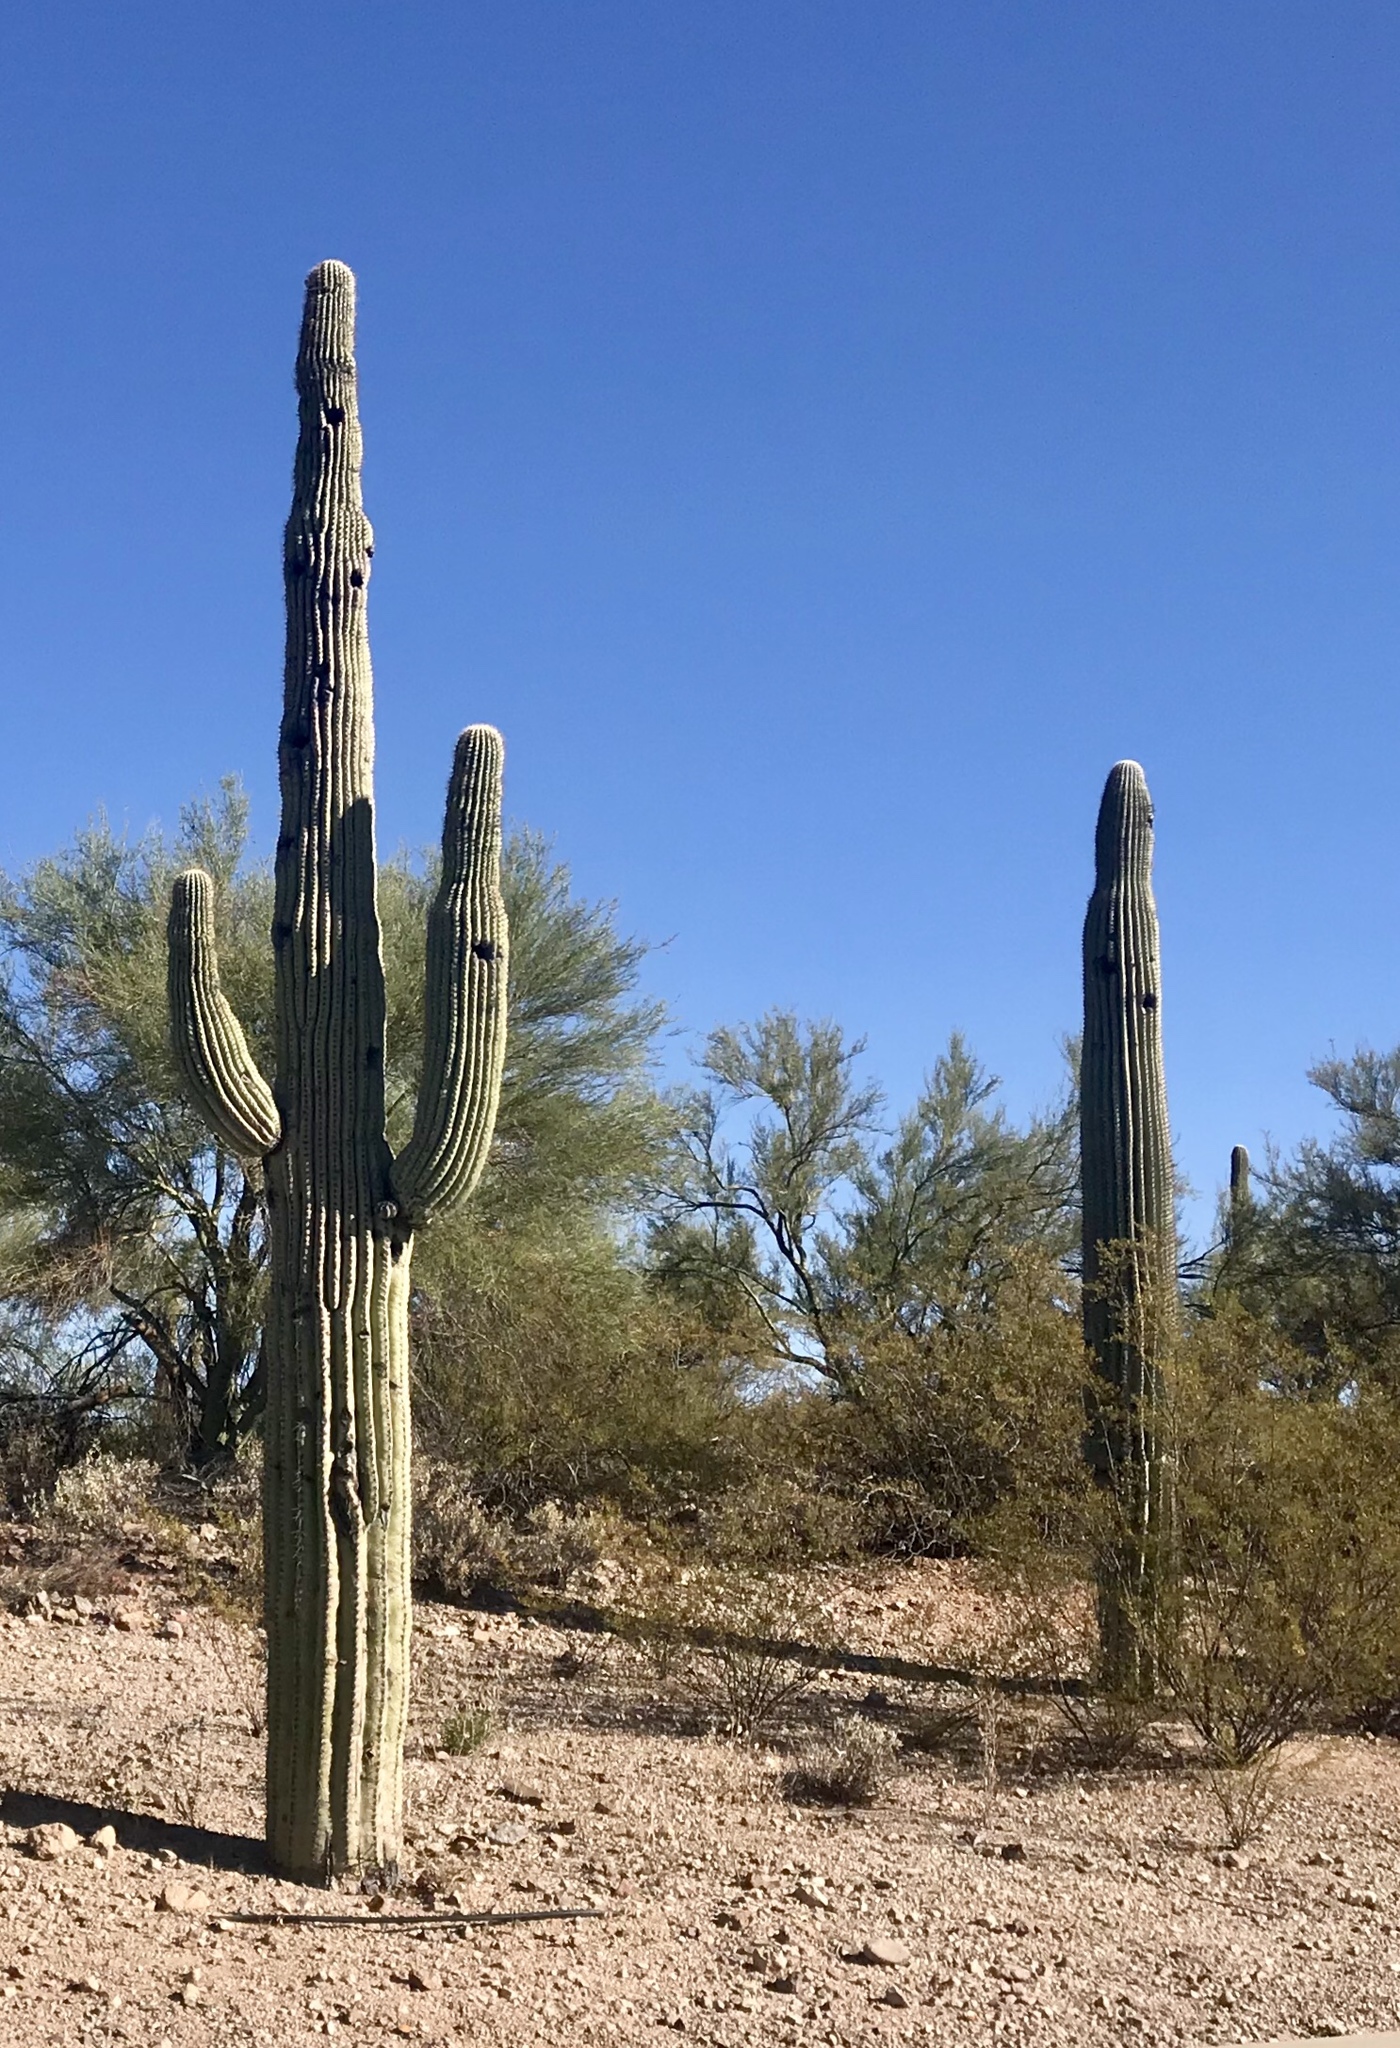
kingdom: Plantae
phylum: Tracheophyta
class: Magnoliopsida
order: Caryophyllales
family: Cactaceae
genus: Carnegiea
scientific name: Carnegiea gigantea
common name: Saguaro
